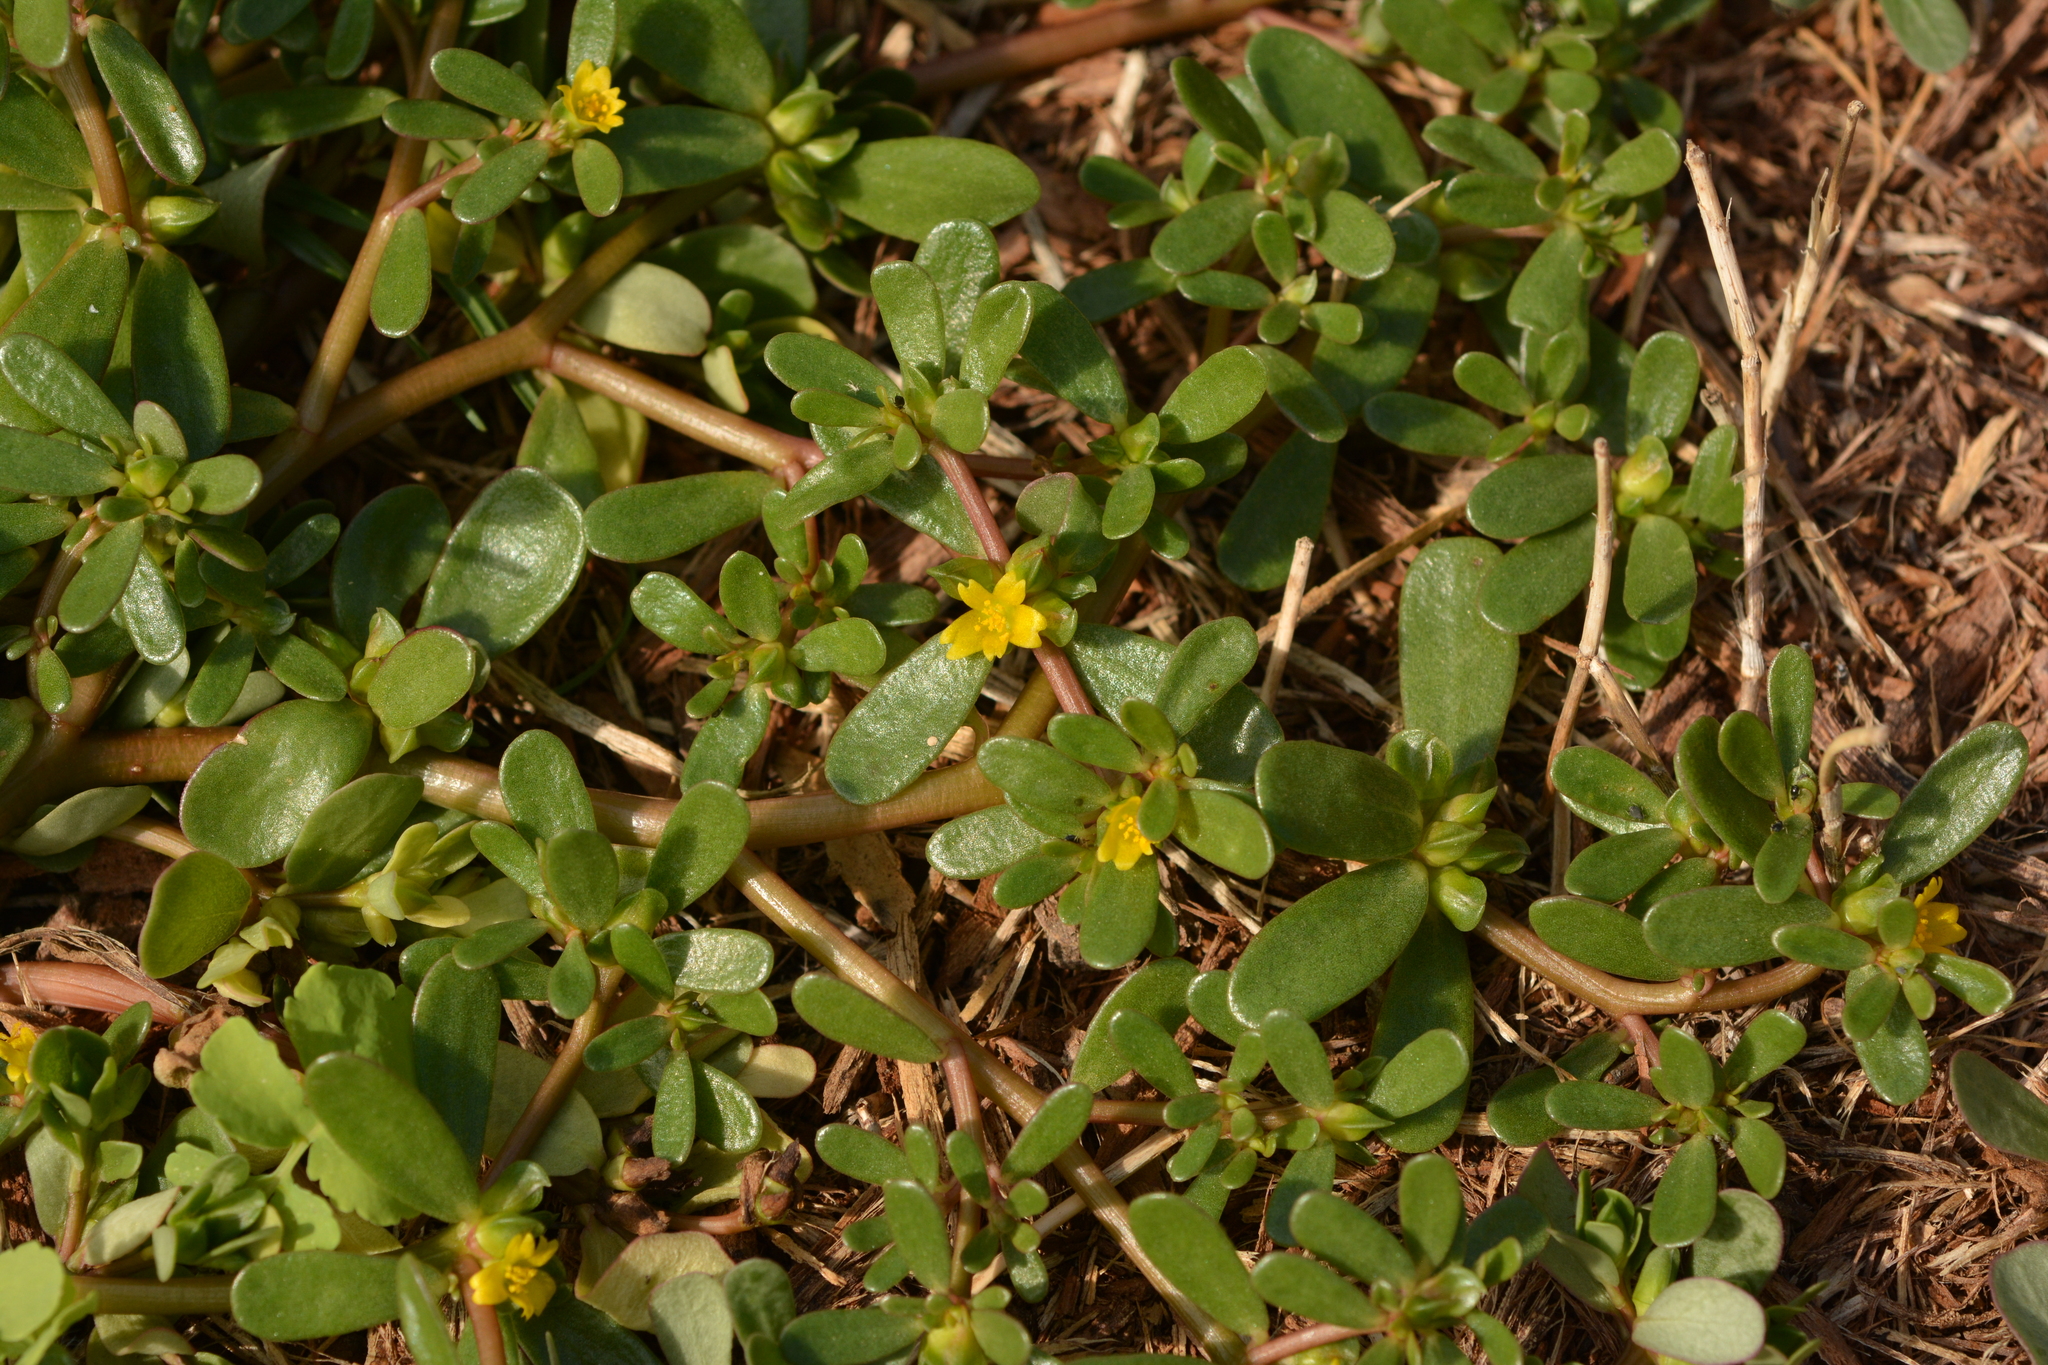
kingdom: Plantae
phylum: Tracheophyta
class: Magnoliopsida
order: Caryophyllales
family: Portulacaceae
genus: Portulaca
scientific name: Portulaca oleracea
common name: Common purslane
